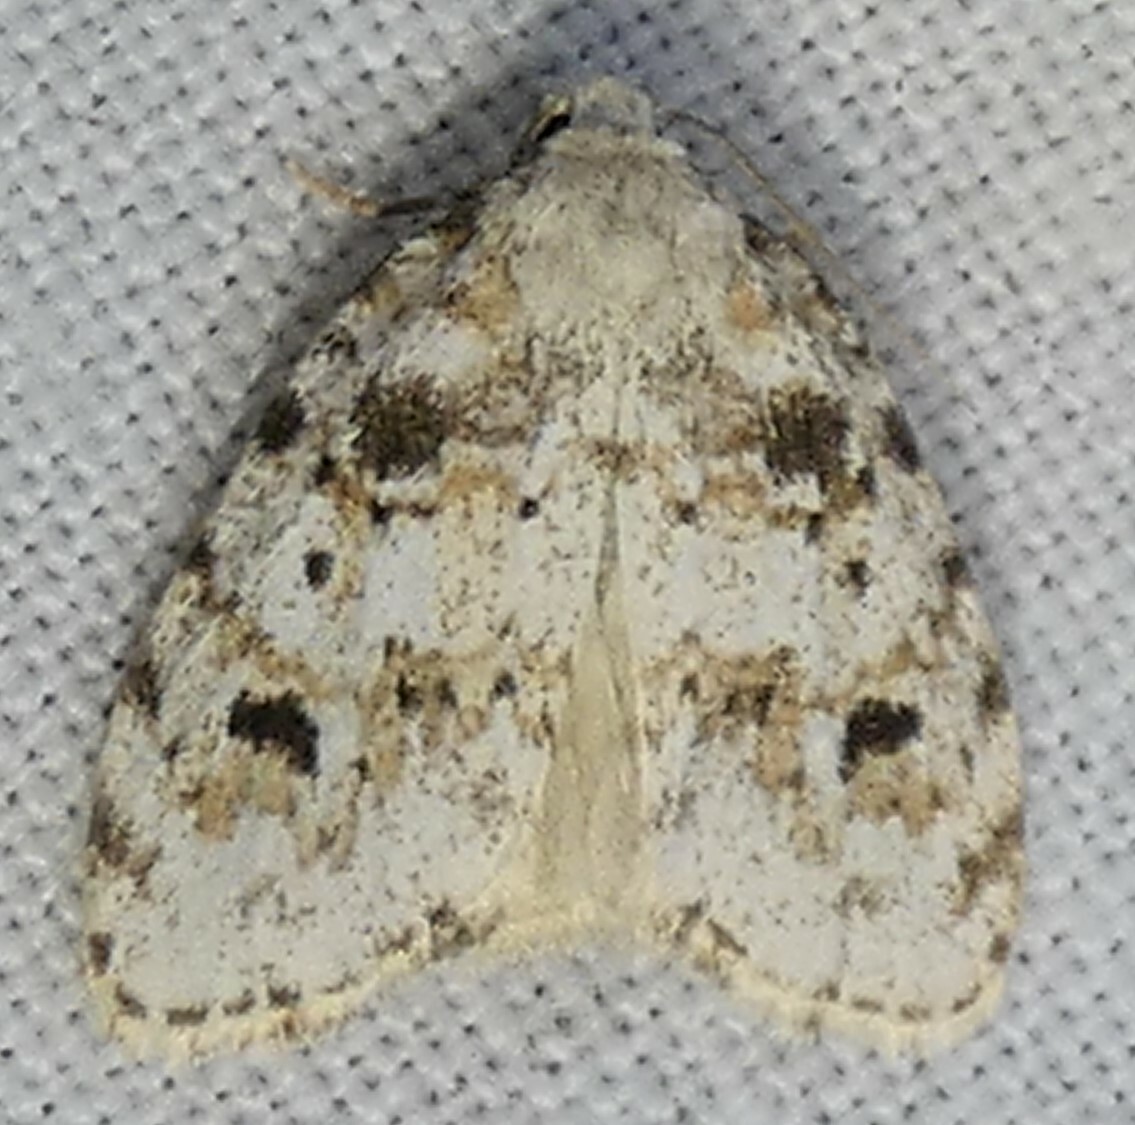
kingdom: Animalia
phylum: Arthropoda
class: Insecta
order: Lepidoptera
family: Erebidae
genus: Clemensia
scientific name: Clemensia ochreata
